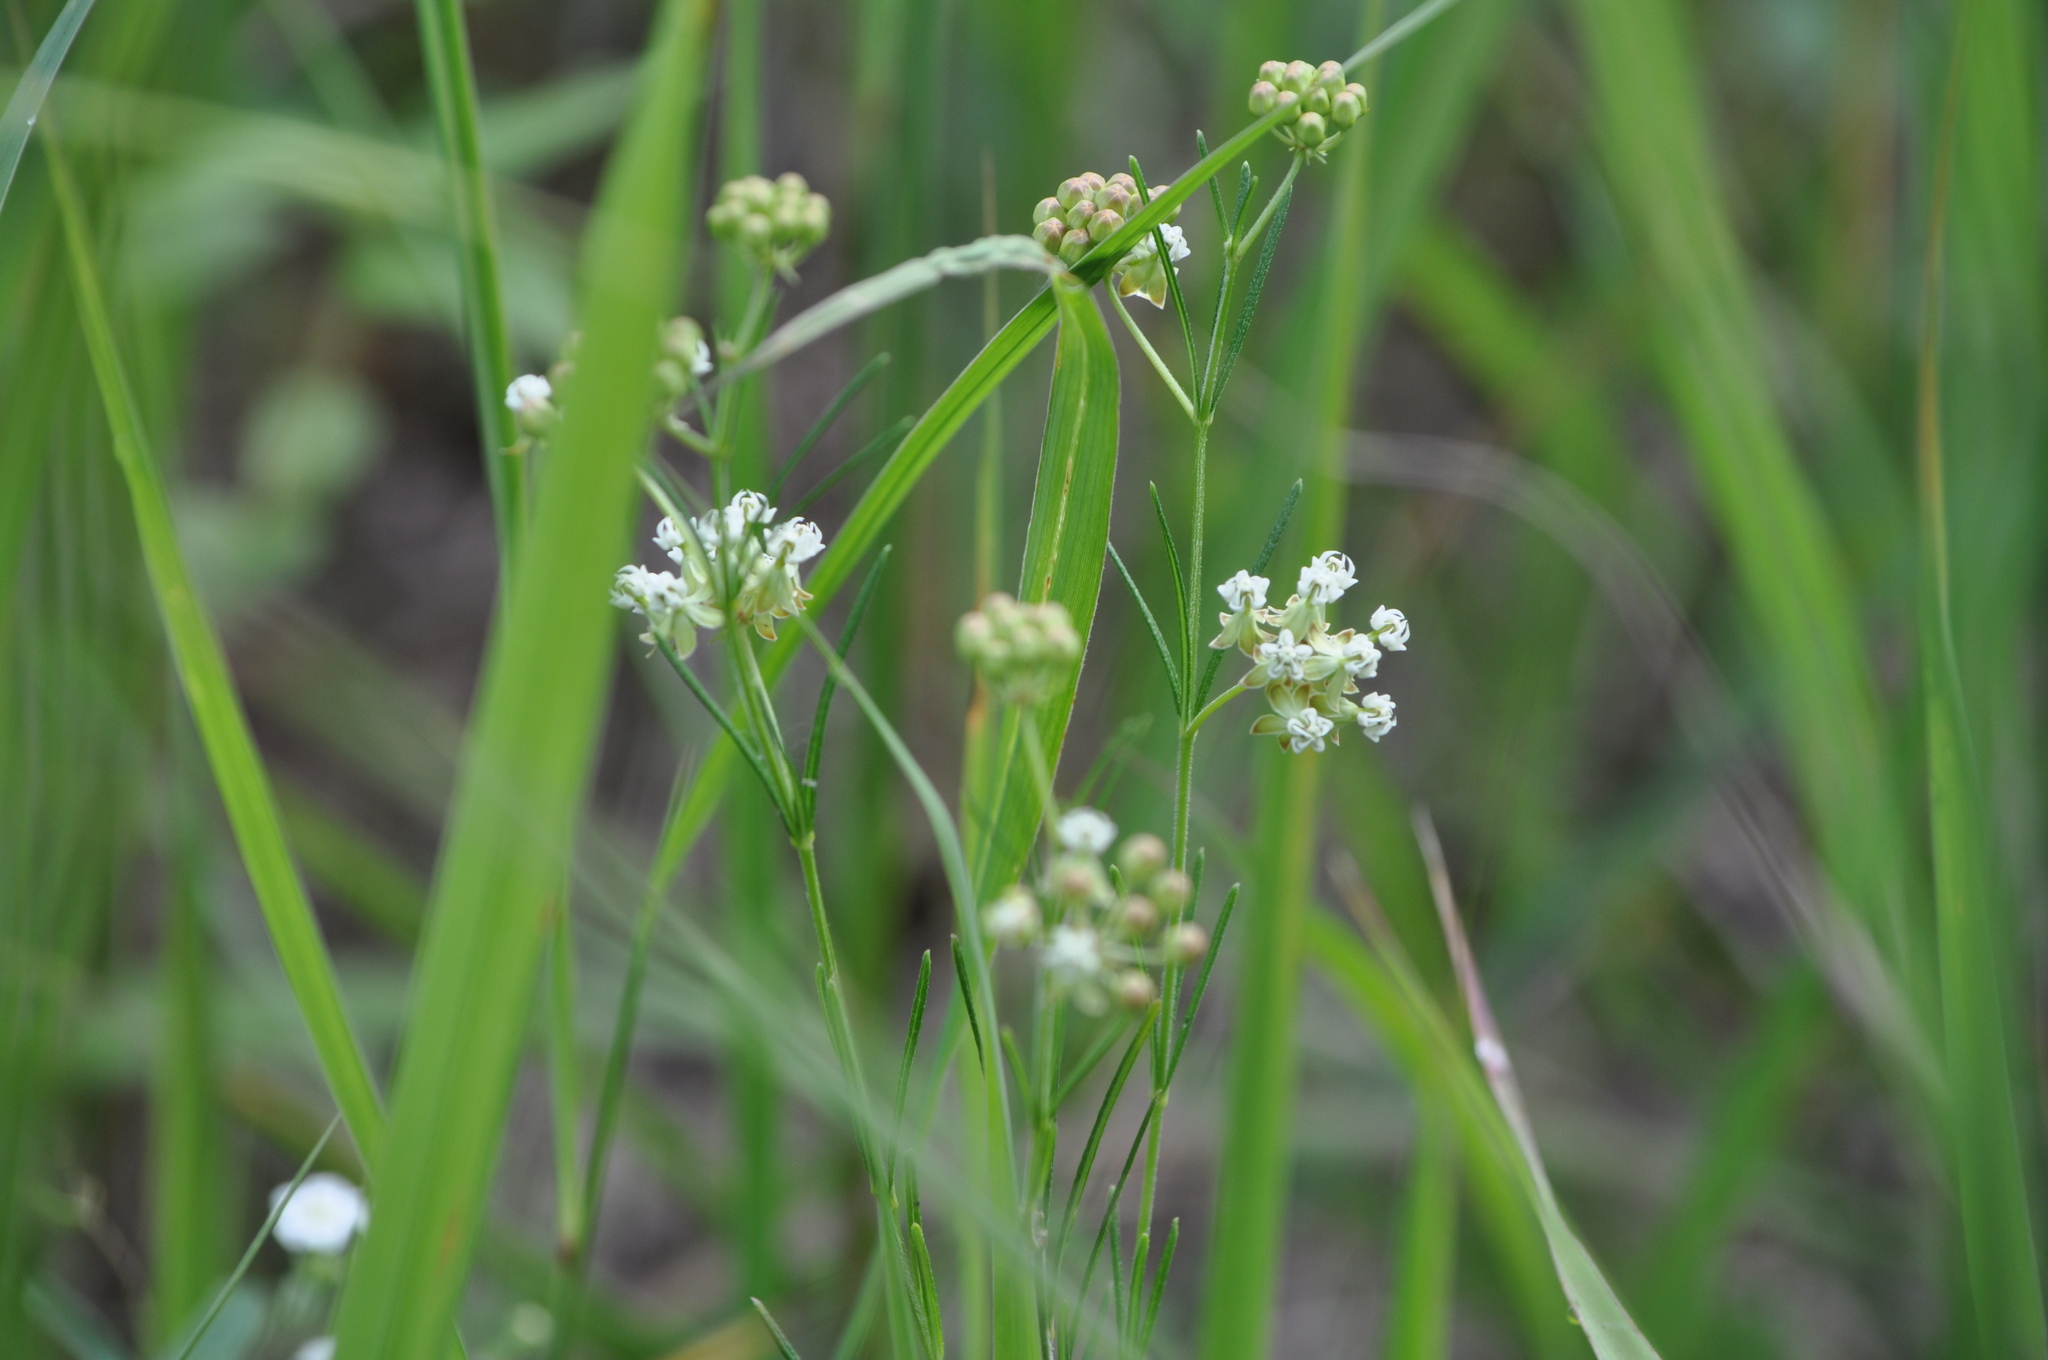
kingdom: Plantae
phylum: Tracheophyta
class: Magnoliopsida
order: Gentianales
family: Apocynaceae
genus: Asclepias
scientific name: Asclepias verticillata
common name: Eastern whorled milkweed
